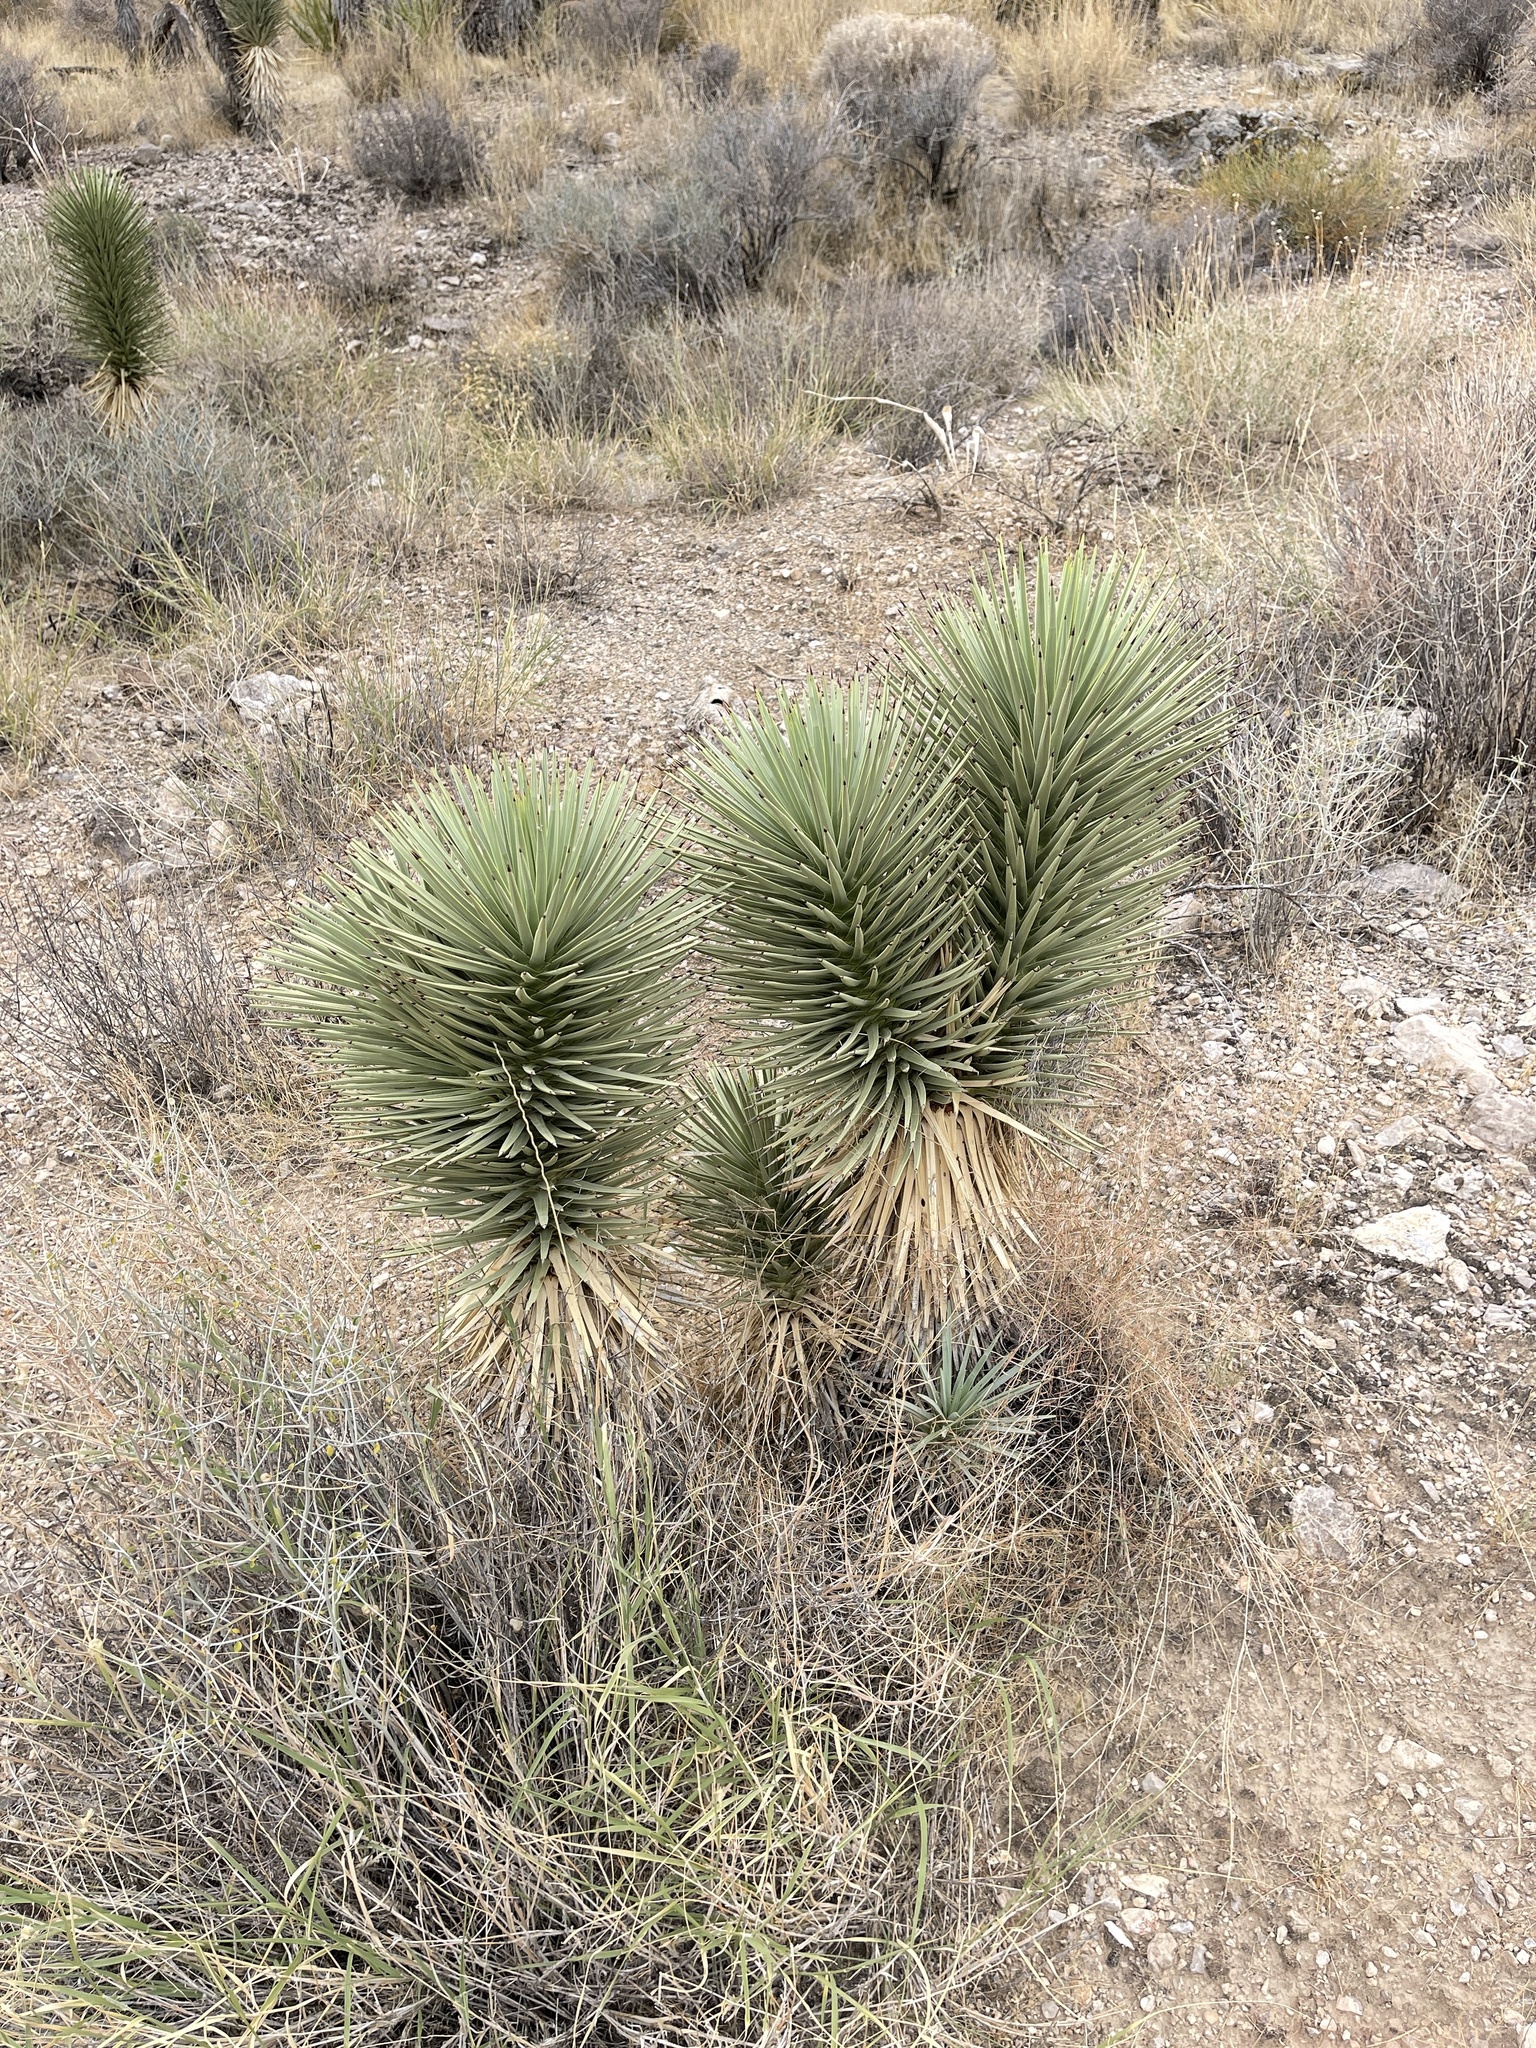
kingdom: Plantae
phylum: Tracheophyta
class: Liliopsida
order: Asparagales
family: Asparagaceae
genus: Yucca
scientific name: Yucca brevifolia
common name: Joshua tree
